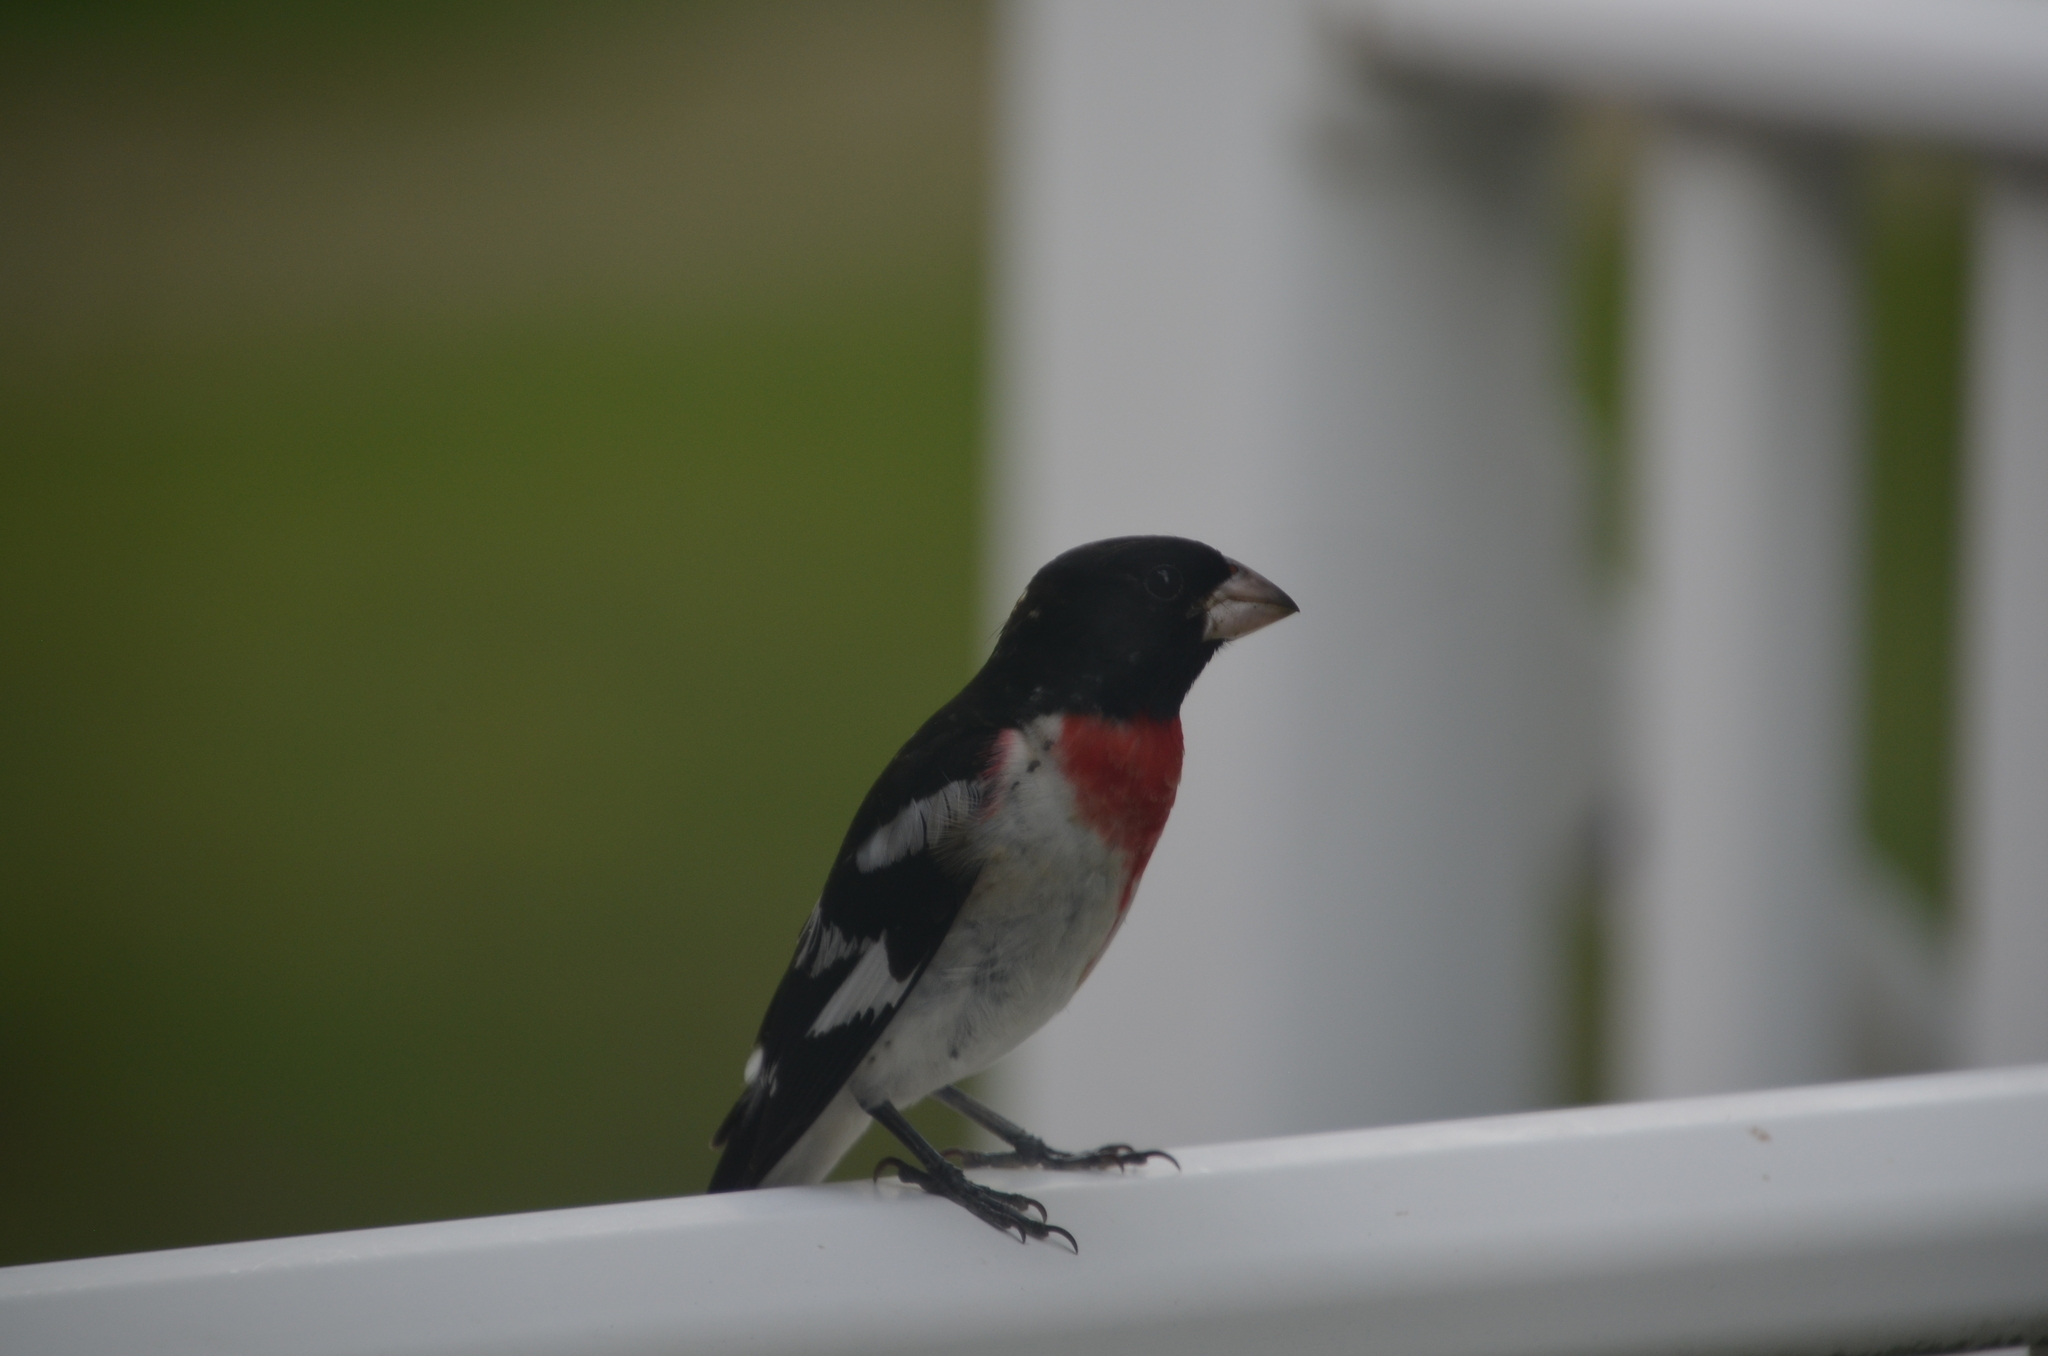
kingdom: Animalia
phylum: Chordata
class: Aves
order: Passeriformes
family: Cardinalidae
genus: Pheucticus
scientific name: Pheucticus ludovicianus
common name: Rose-breasted grosbeak
